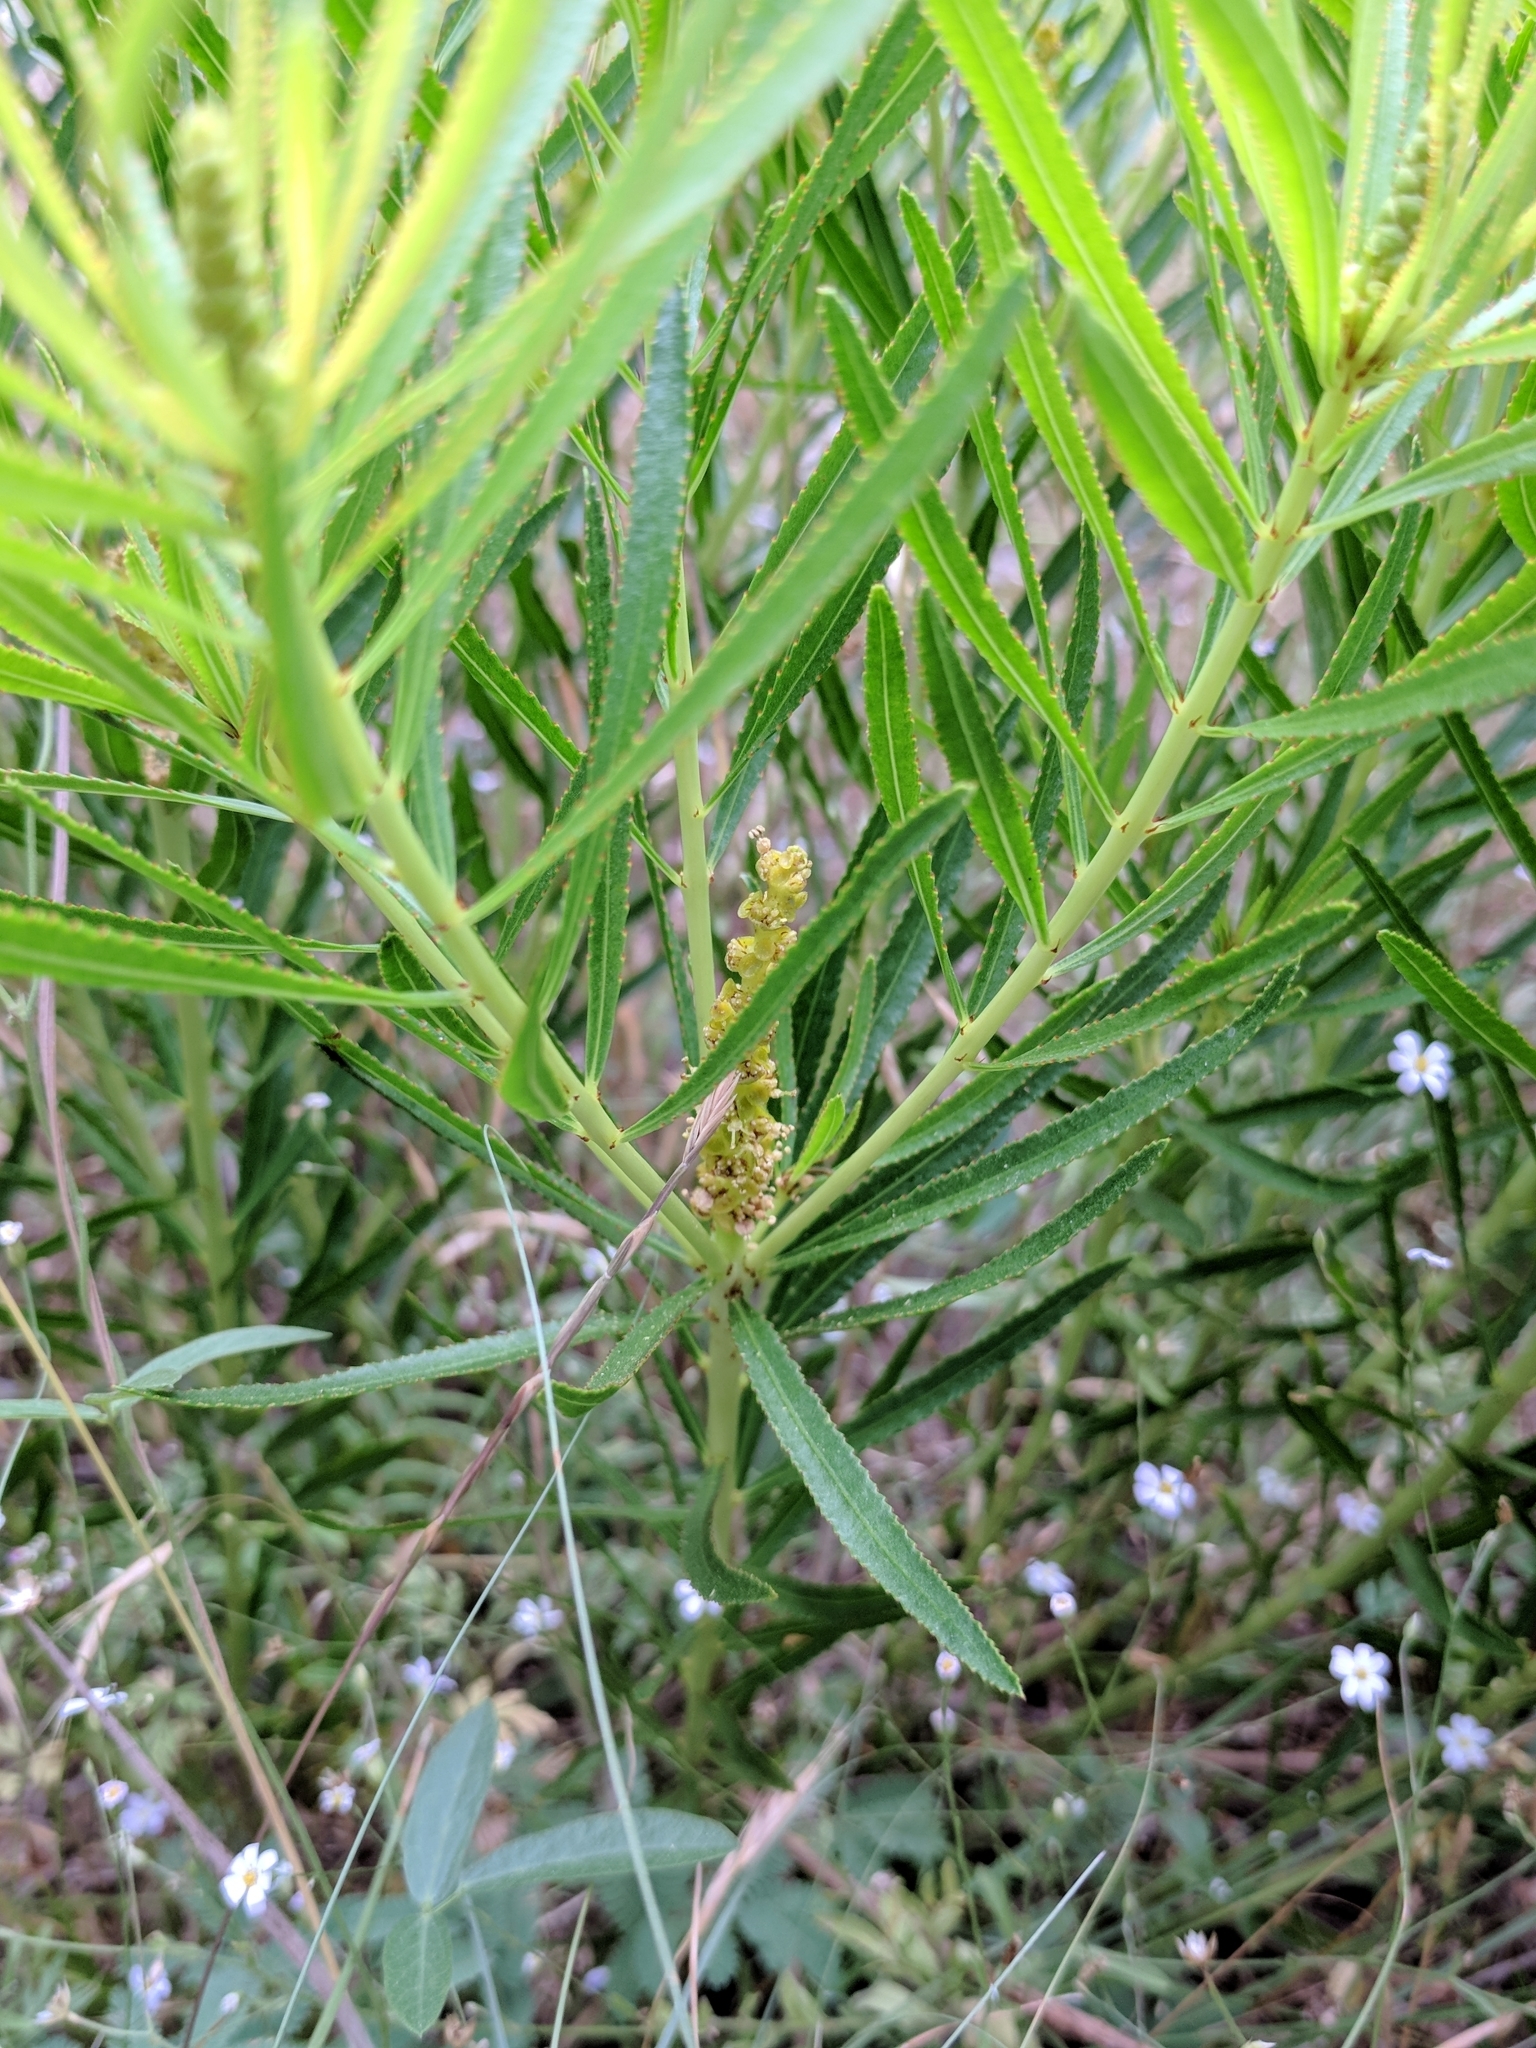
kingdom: Plantae
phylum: Tracheophyta
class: Magnoliopsida
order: Malpighiales
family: Euphorbiaceae
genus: Stillingia
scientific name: Stillingia texana
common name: Texas stillingia
